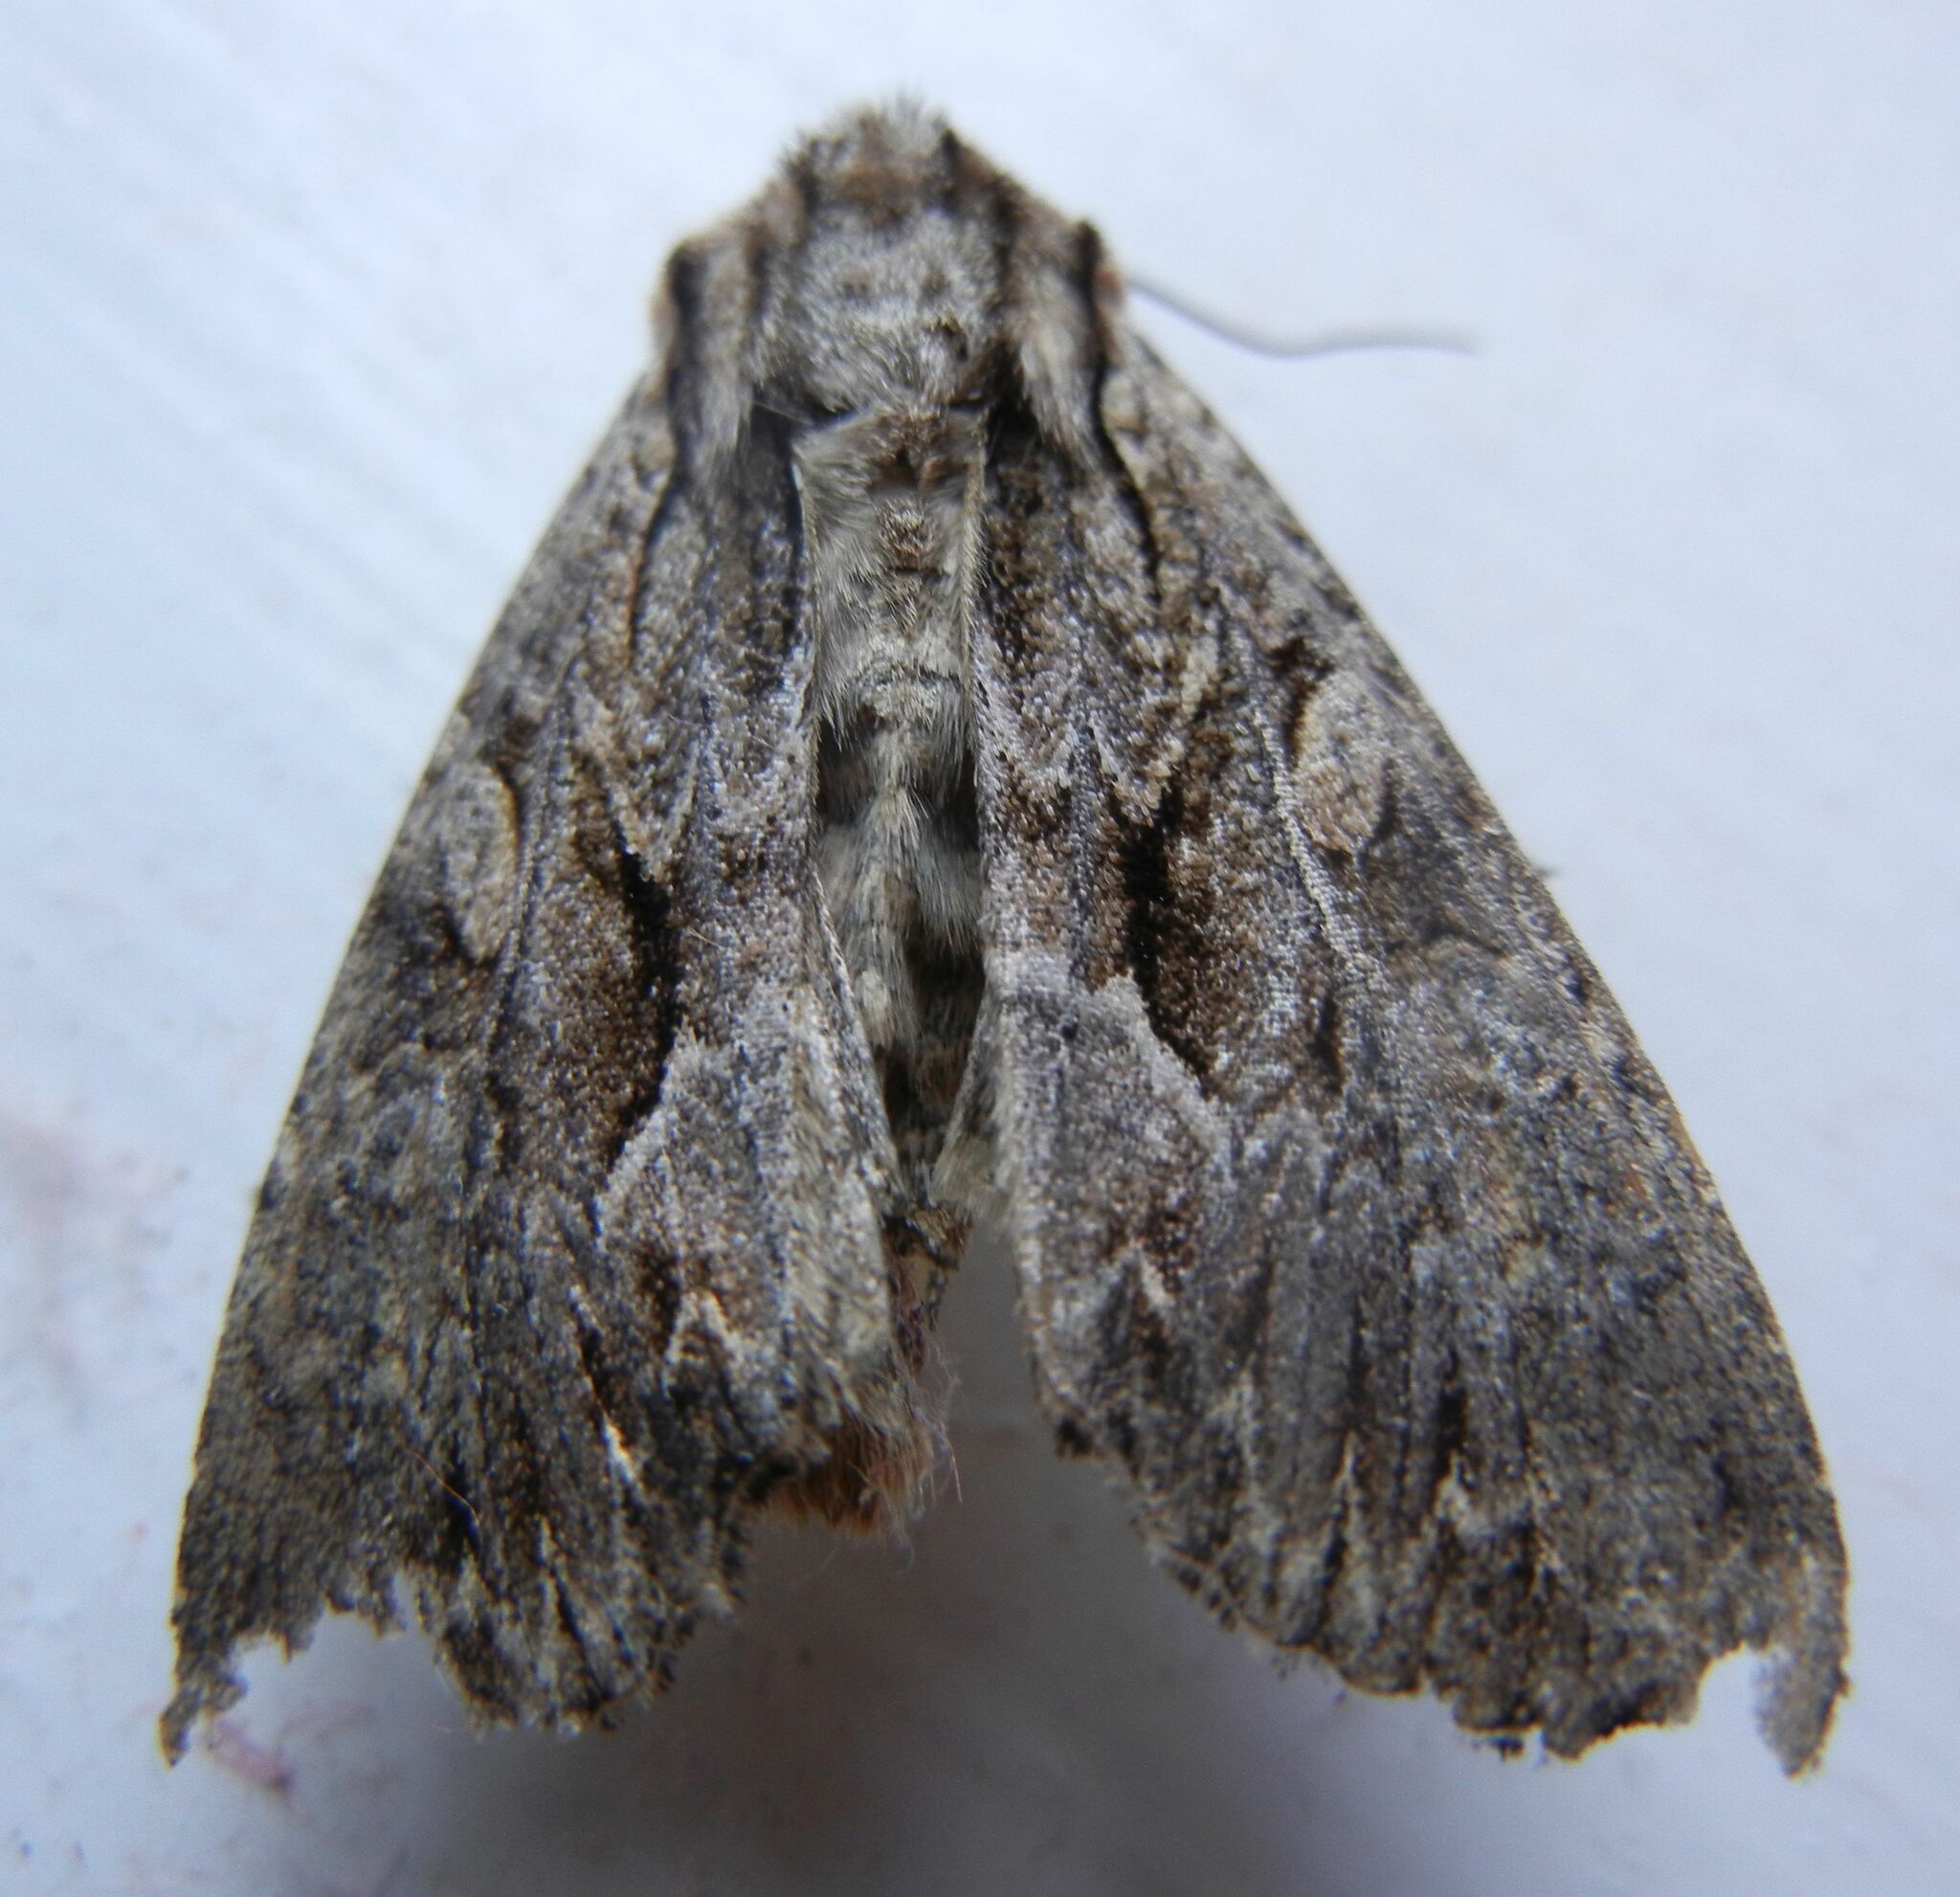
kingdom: Animalia
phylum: Arthropoda
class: Insecta
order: Lepidoptera
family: Noctuidae
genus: Apamea
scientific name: Apamea monoglypha
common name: Dark arches
